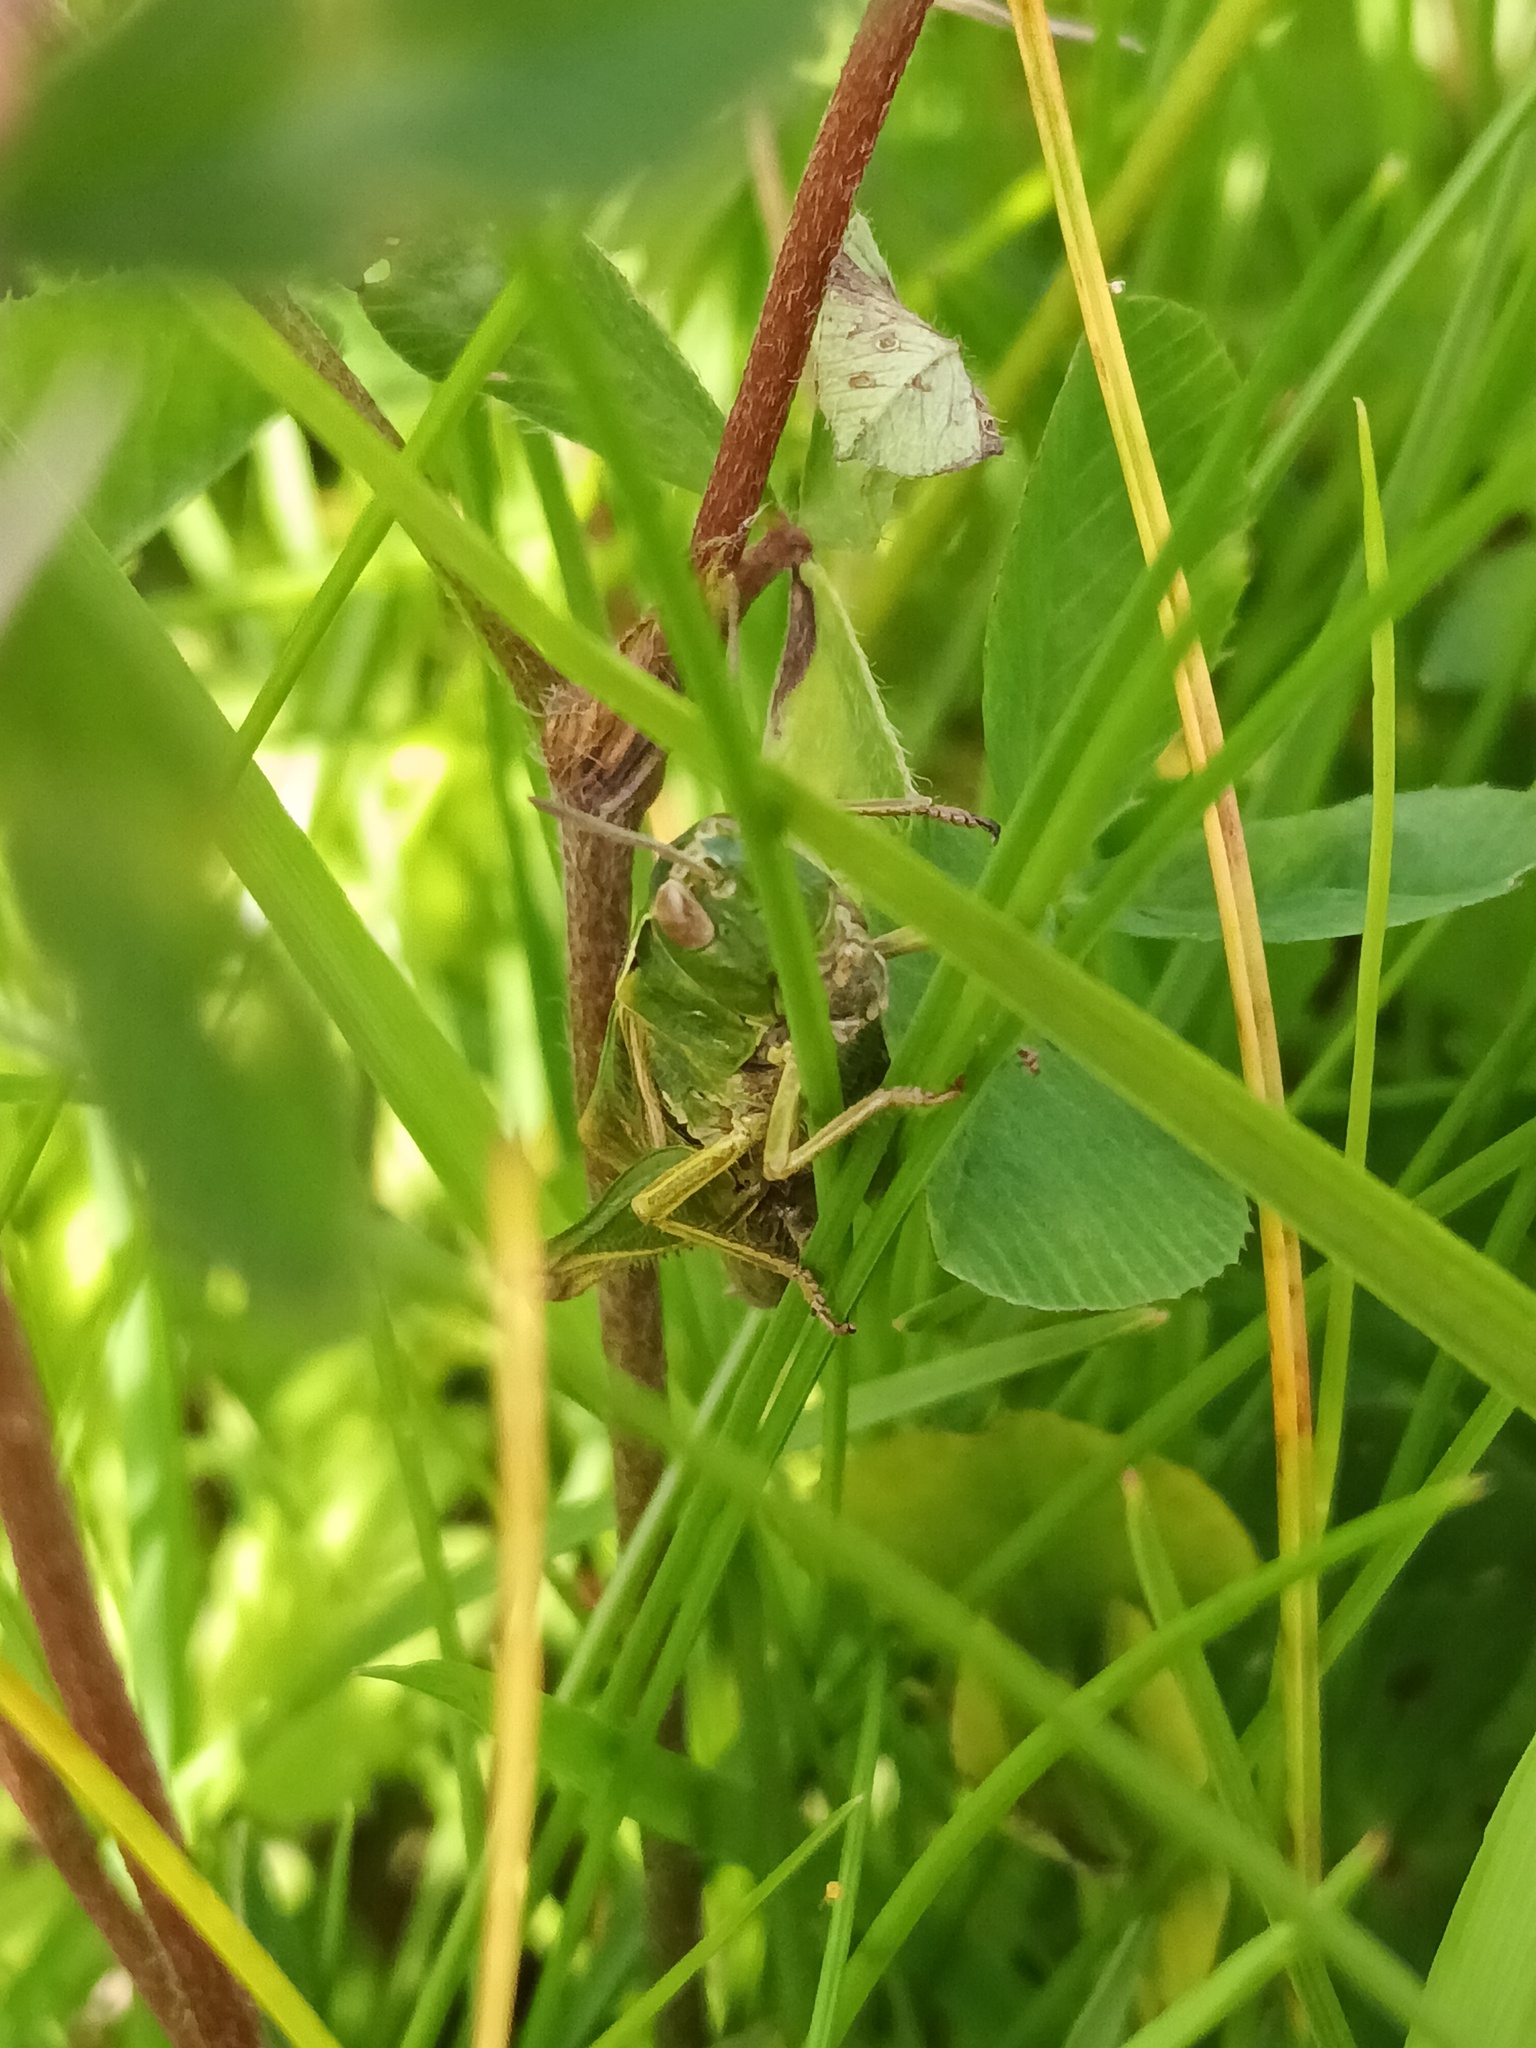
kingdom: Animalia
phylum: Arthropoda
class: Insecta
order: Orthoptera
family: Acrididae
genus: Omocestus
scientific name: Omocestus viridulus
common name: Common green grasshopper
